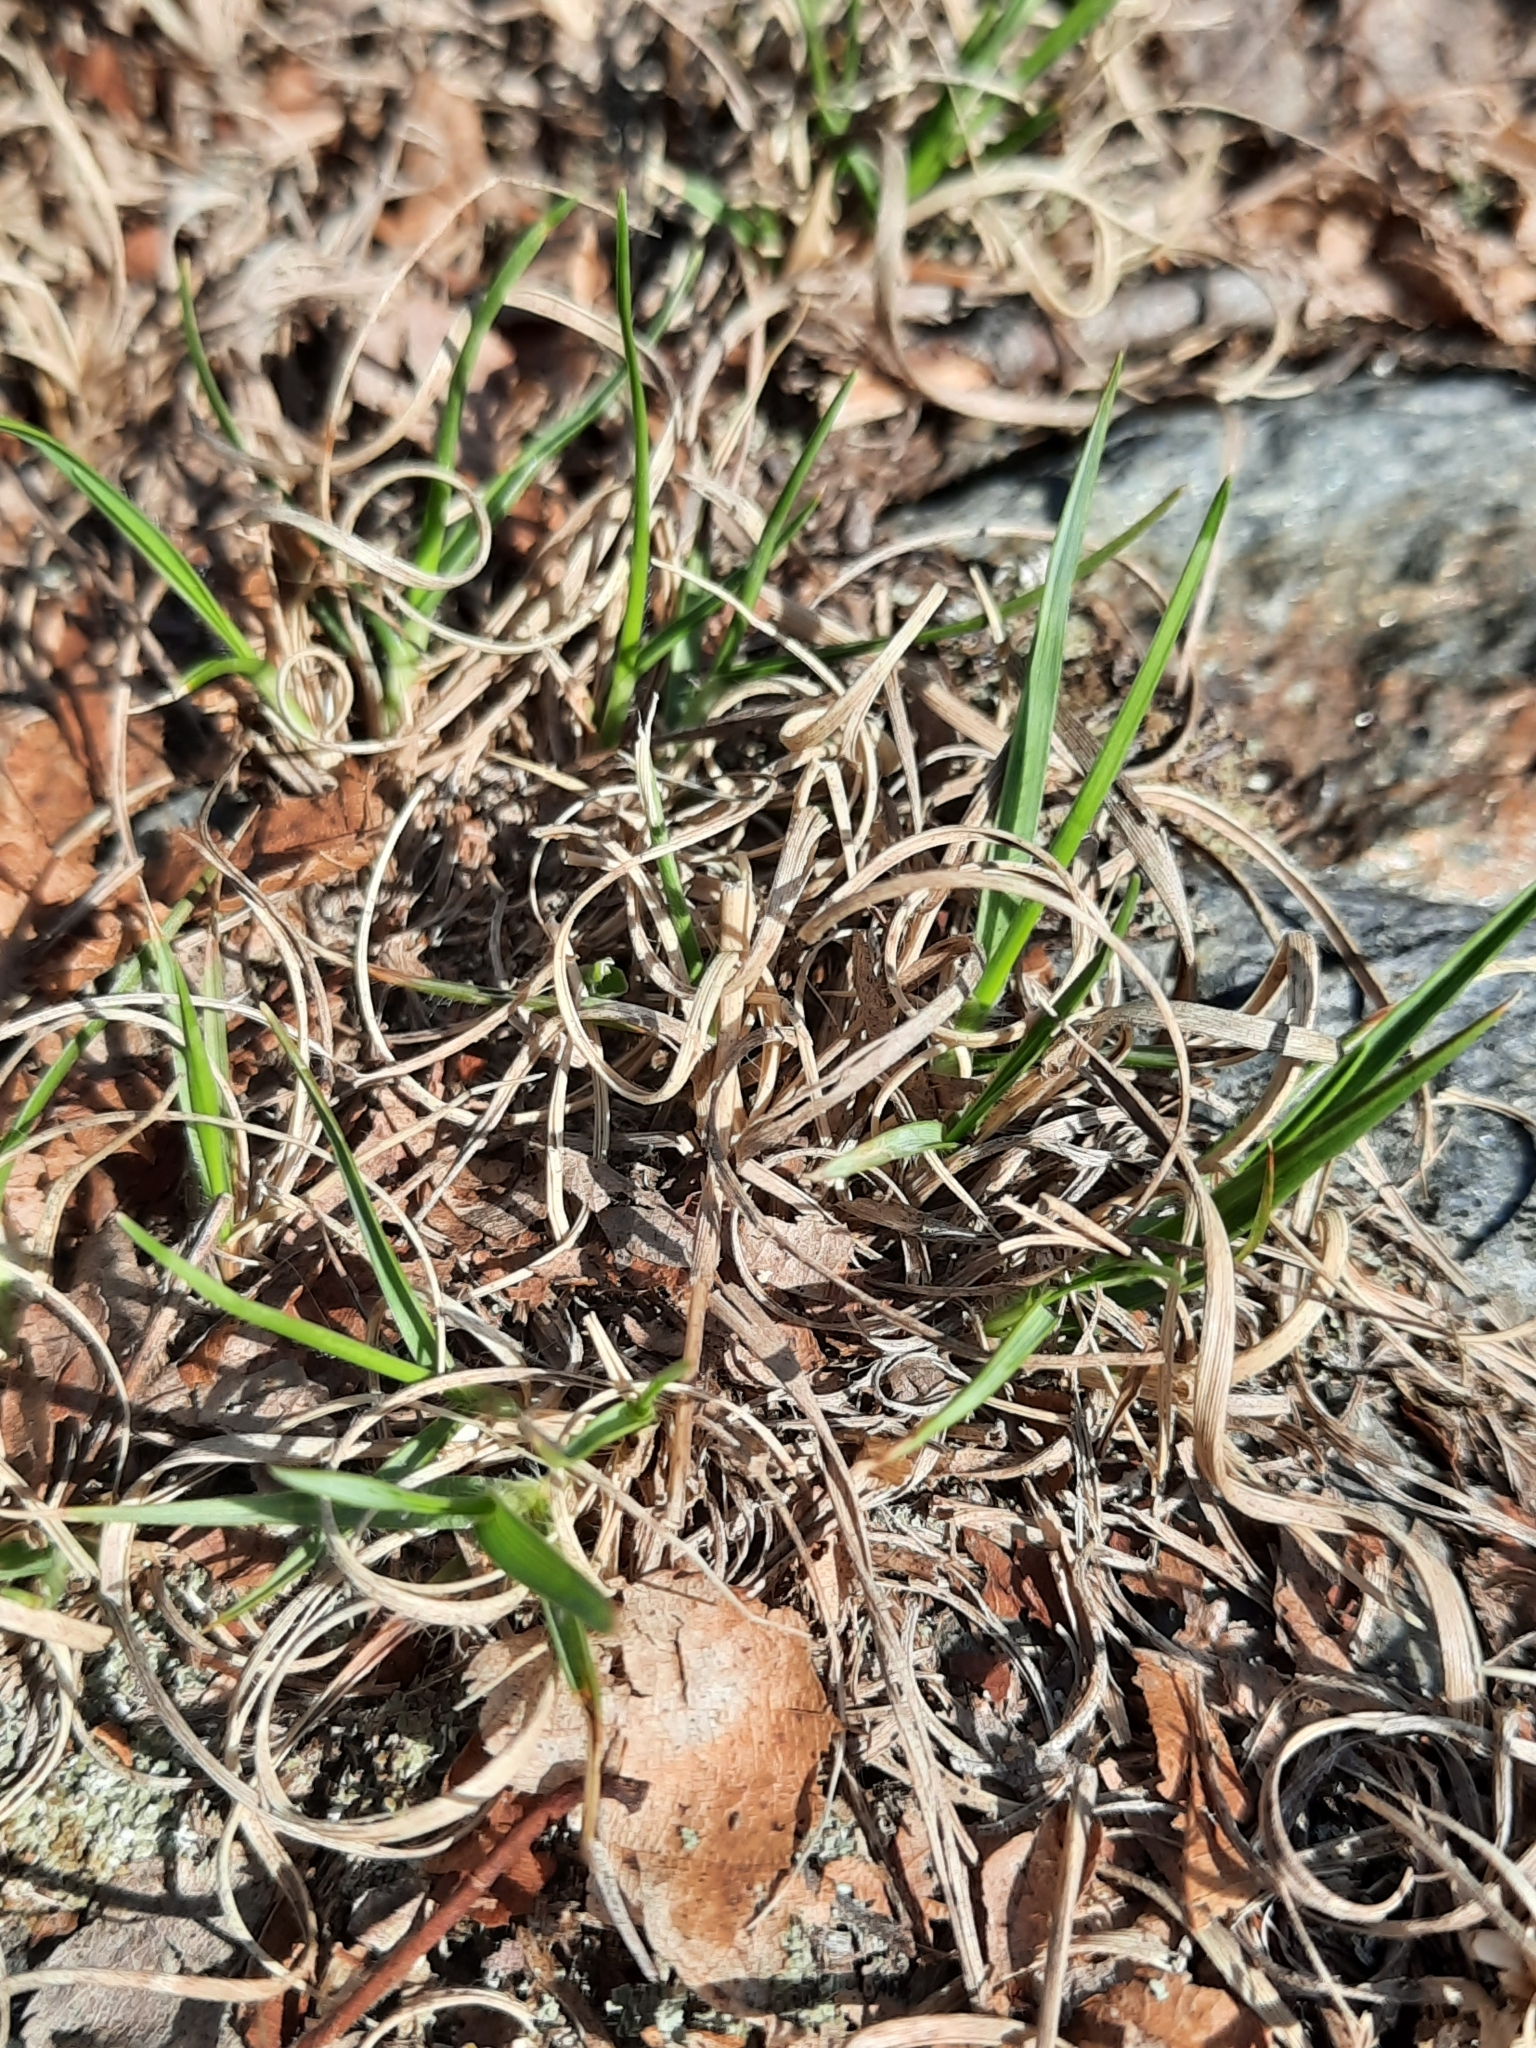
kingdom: Plantae
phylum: Tracheophyta
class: Liliopsida
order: Poales
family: Poaceae
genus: Danthonia
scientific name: Danthonia spicata
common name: Common wild oatgrass
